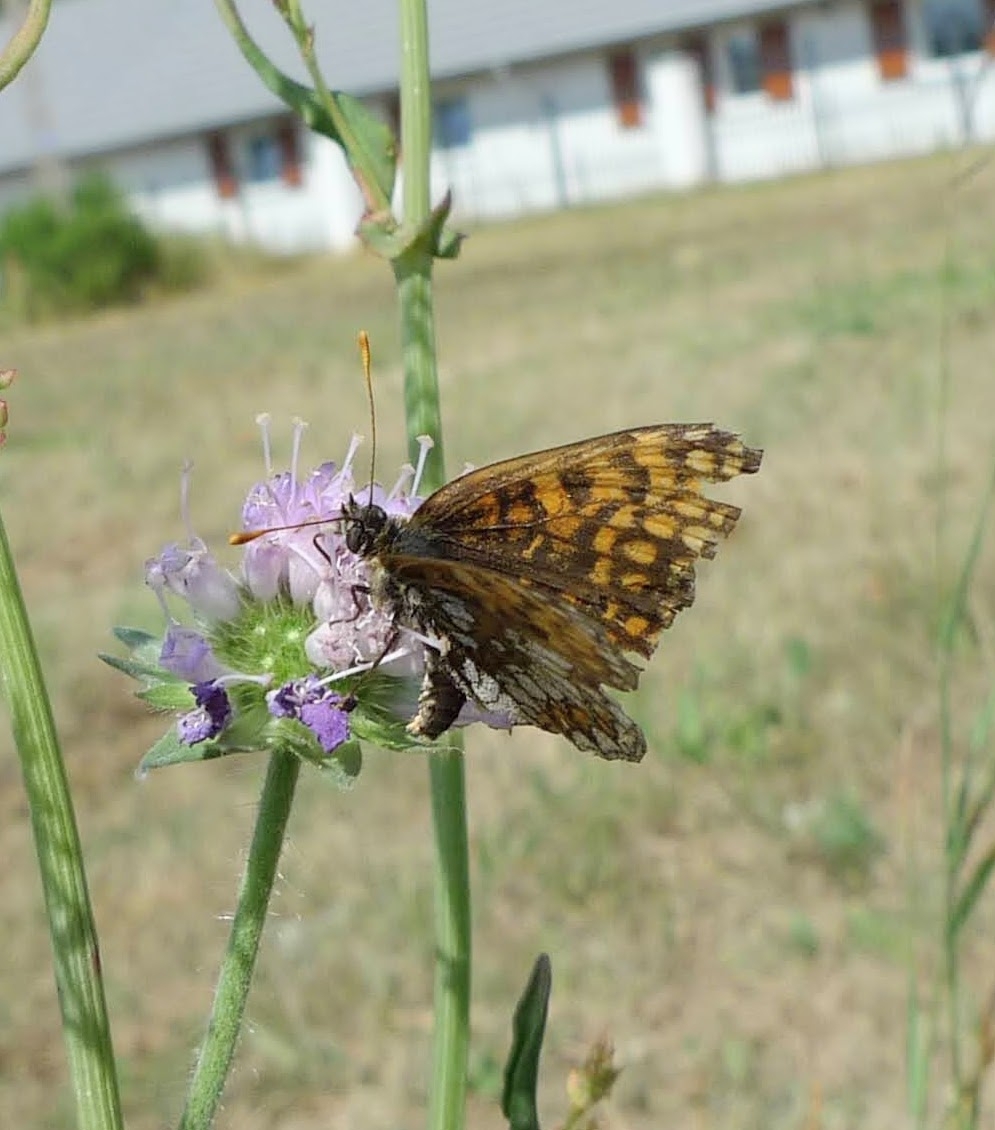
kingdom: Animalia
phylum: Arthropoda
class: Insecta
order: Lepidoptera
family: Nymphalidae
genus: Melitaea
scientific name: Melitaea athalia
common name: Heath fritillary
